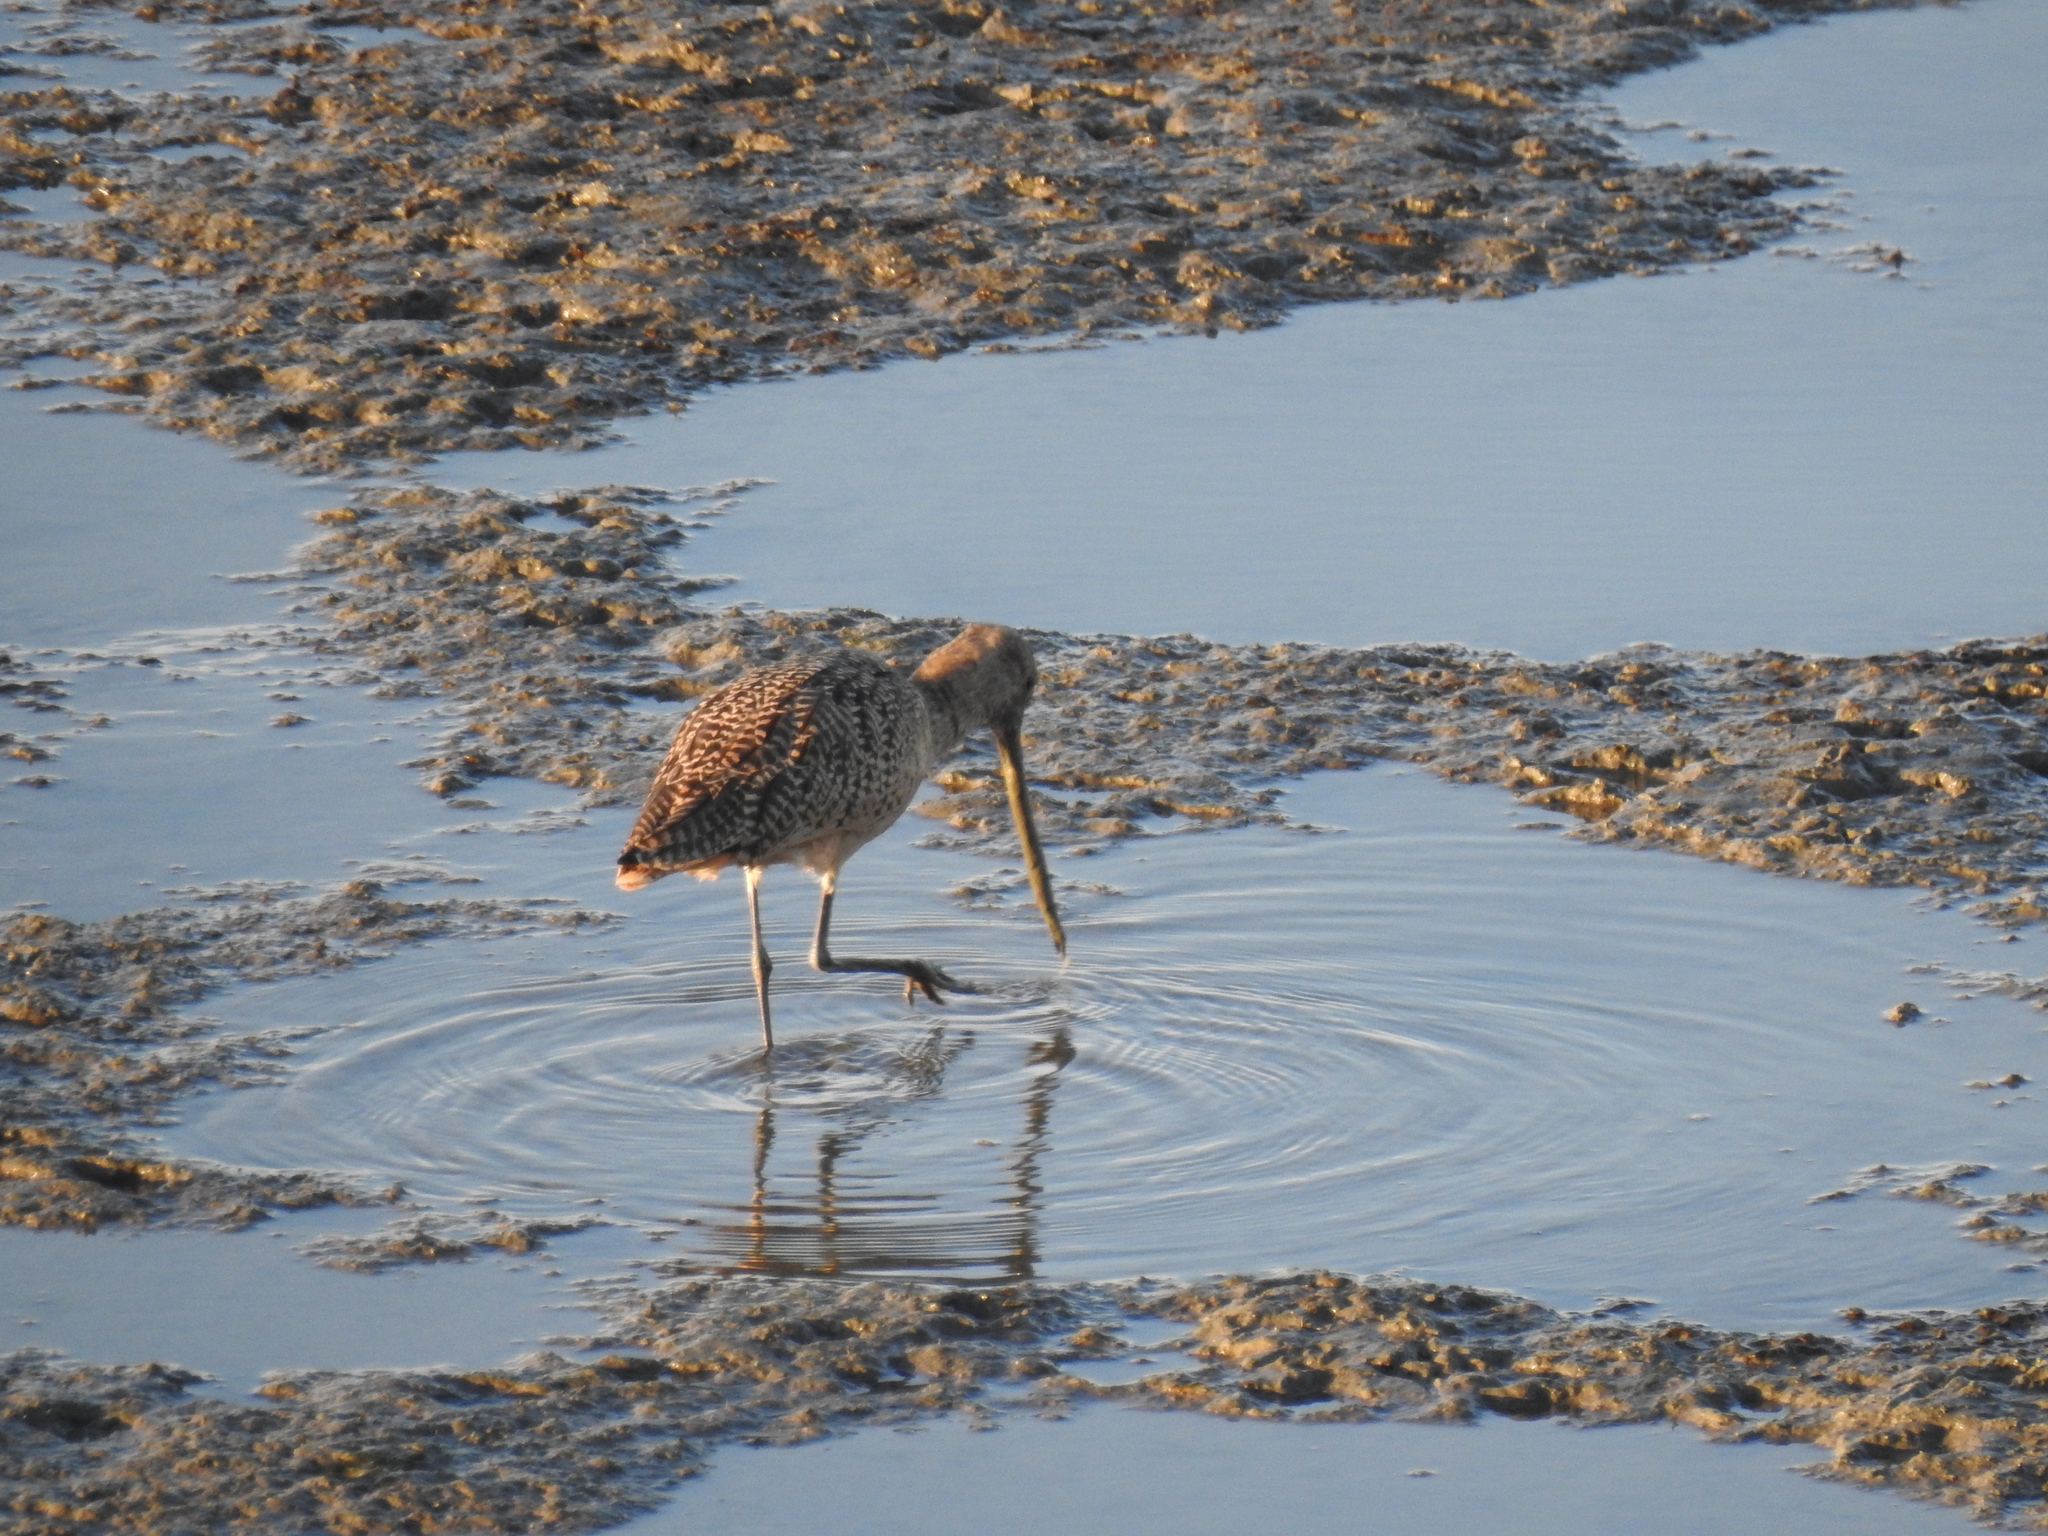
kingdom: Animalia
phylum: Chordata
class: Aves
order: Charadriiformes
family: Scolopacidae
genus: Limosa
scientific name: Limosa fedoa
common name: Marbled godwit
